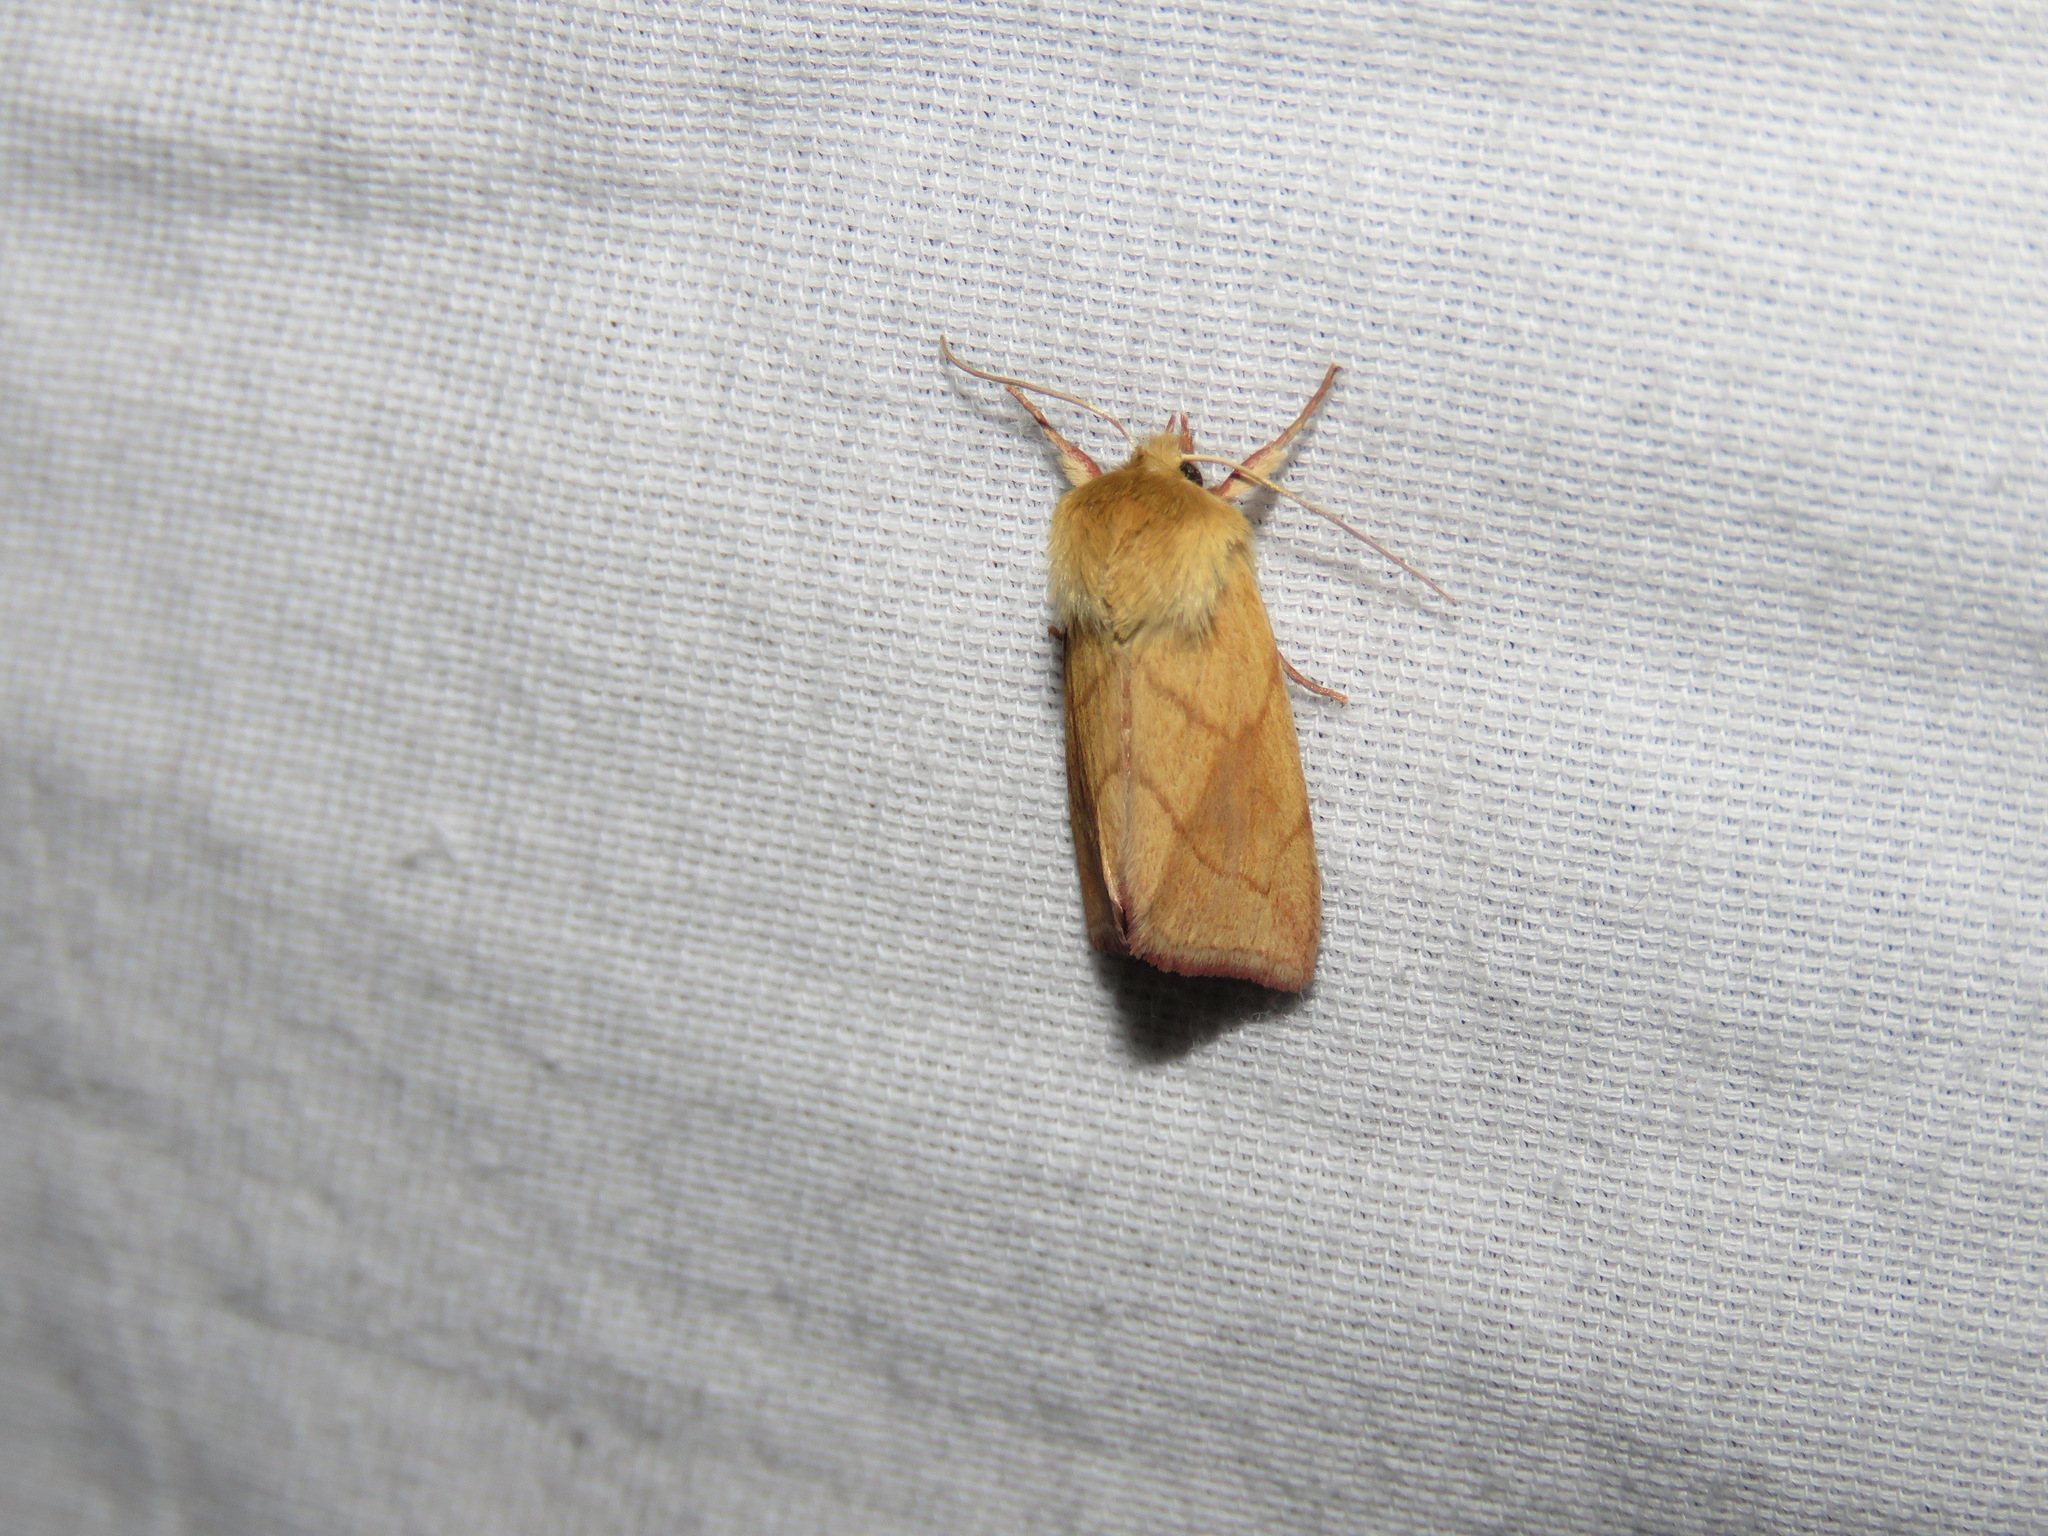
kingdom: Animalia
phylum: Arthropoda
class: Insecta
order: Lepidoptera
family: Noctuidae
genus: Zosteropoda
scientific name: Zosteropoda hirtipes
